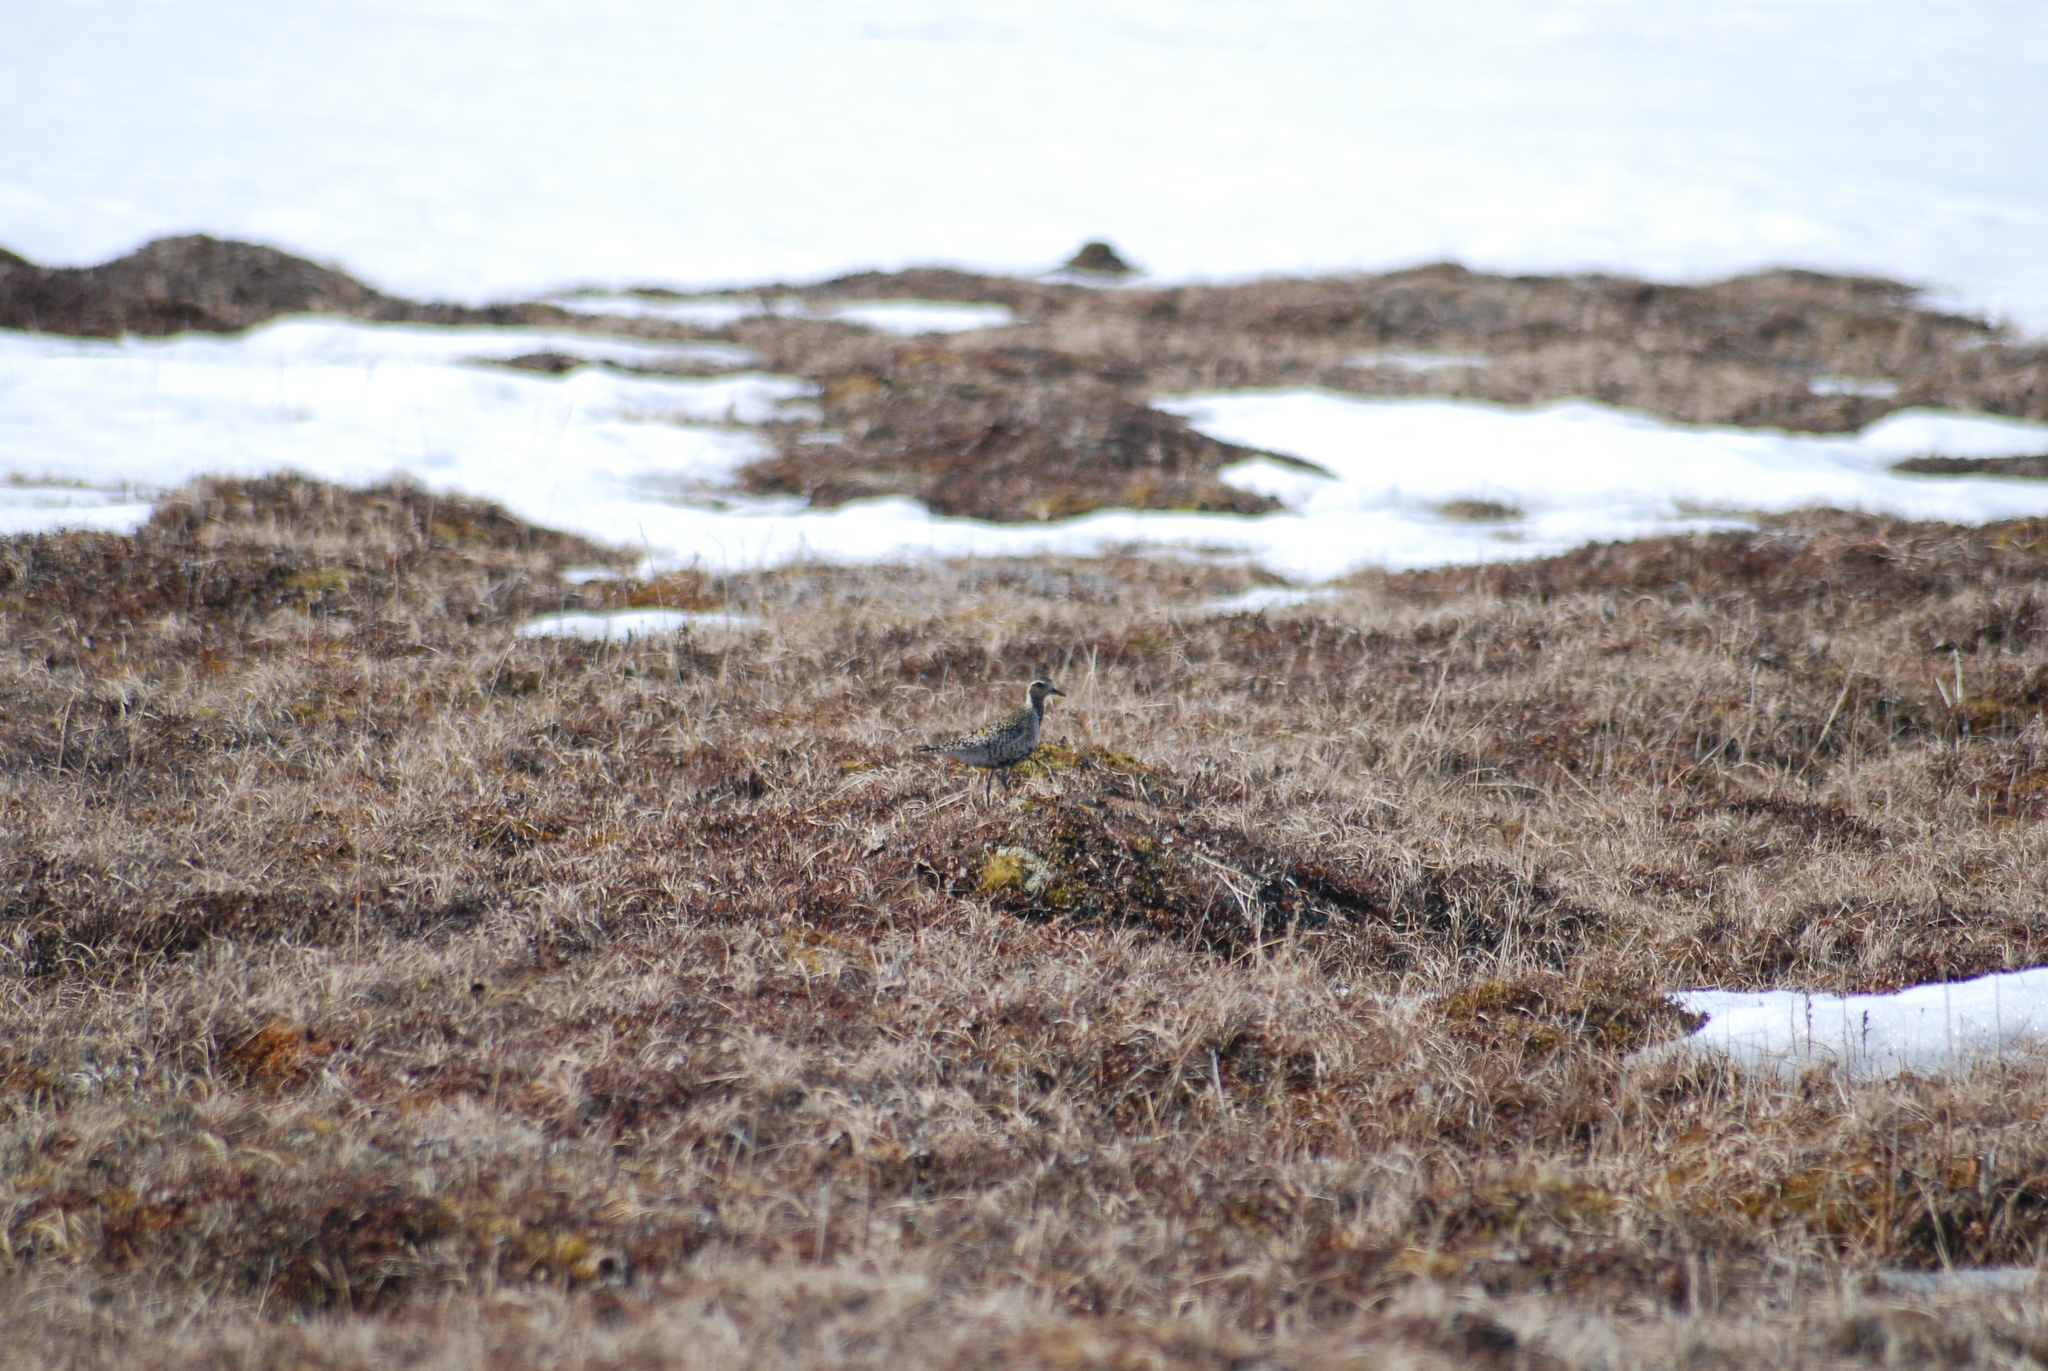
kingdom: Animalia
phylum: Chordata
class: Aves
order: Charadriiformes
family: Charadriidae
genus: Pluvialis
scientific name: Pluvialis fulva
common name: Pacific golden plover
